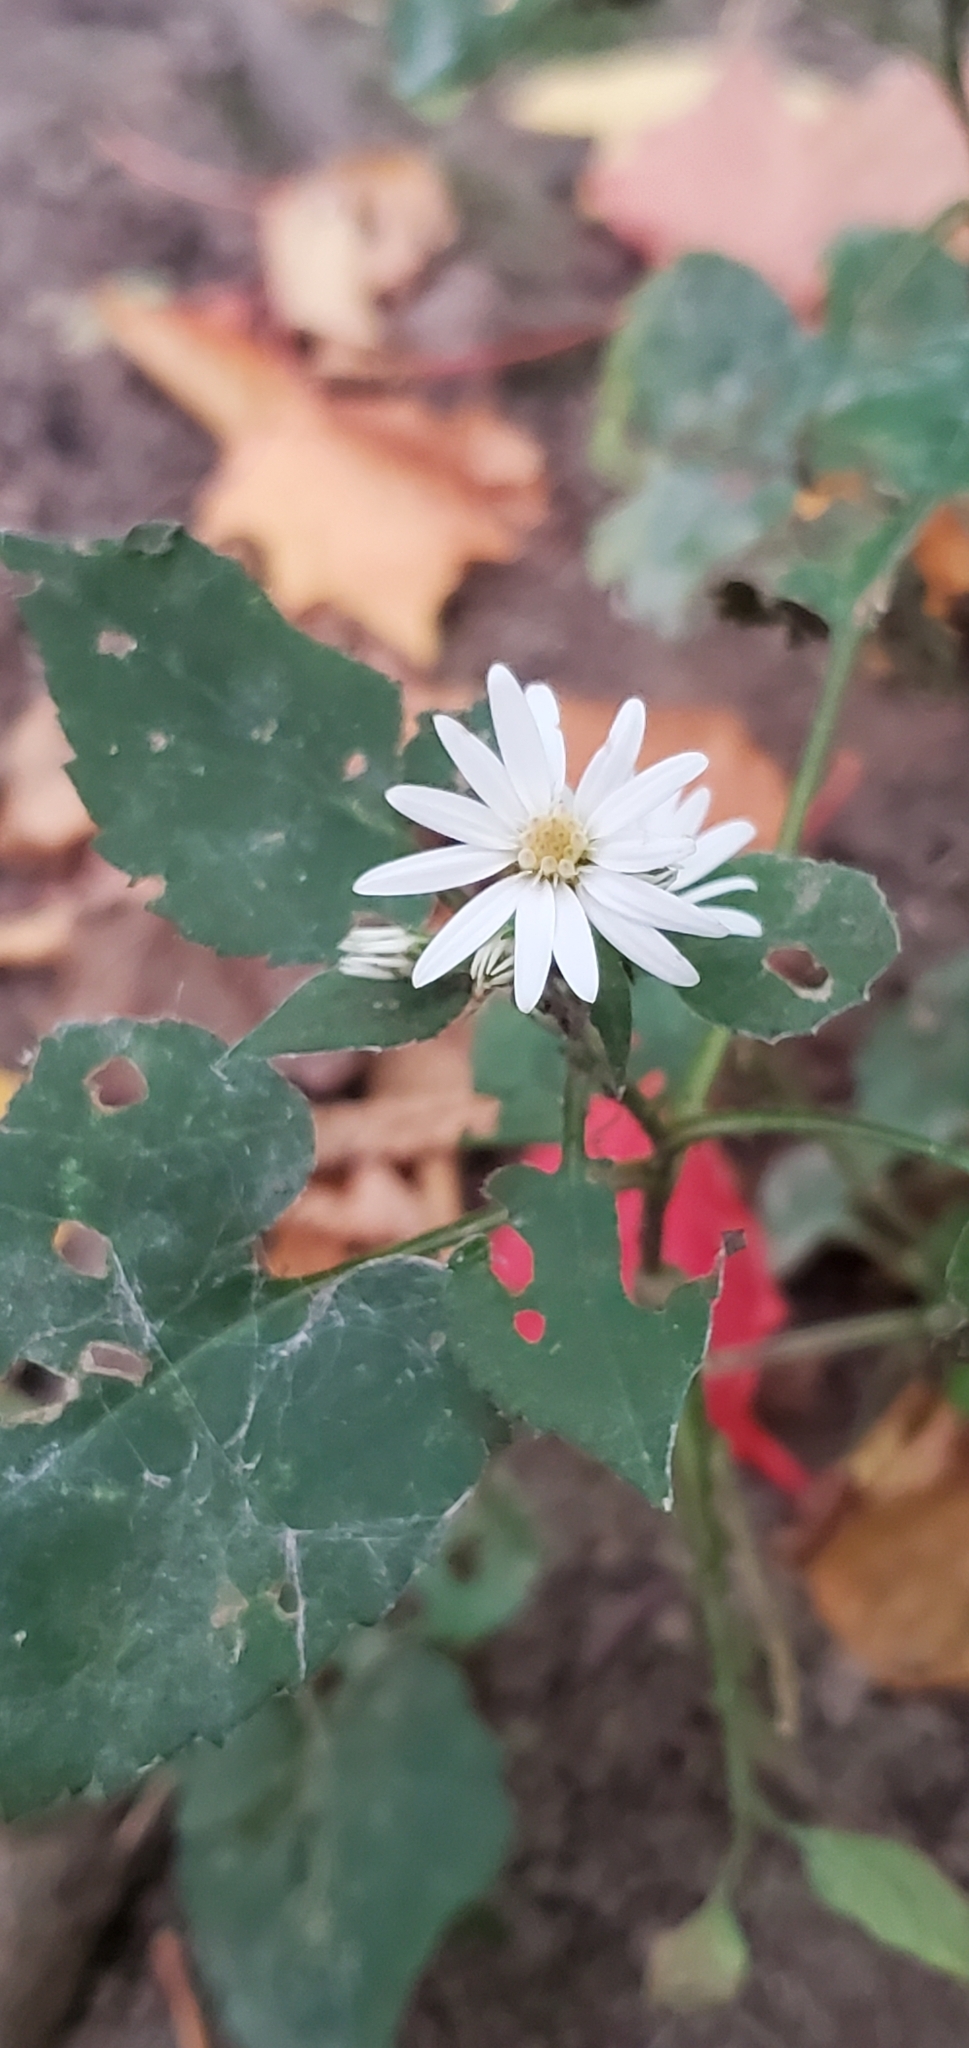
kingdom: Plantae
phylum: Tracheophyta
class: Magnoliopsida
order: Asterales
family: Asteraceae
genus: Symphyotrichum
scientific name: Symphyotrichum cordifolium
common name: Beeweed
